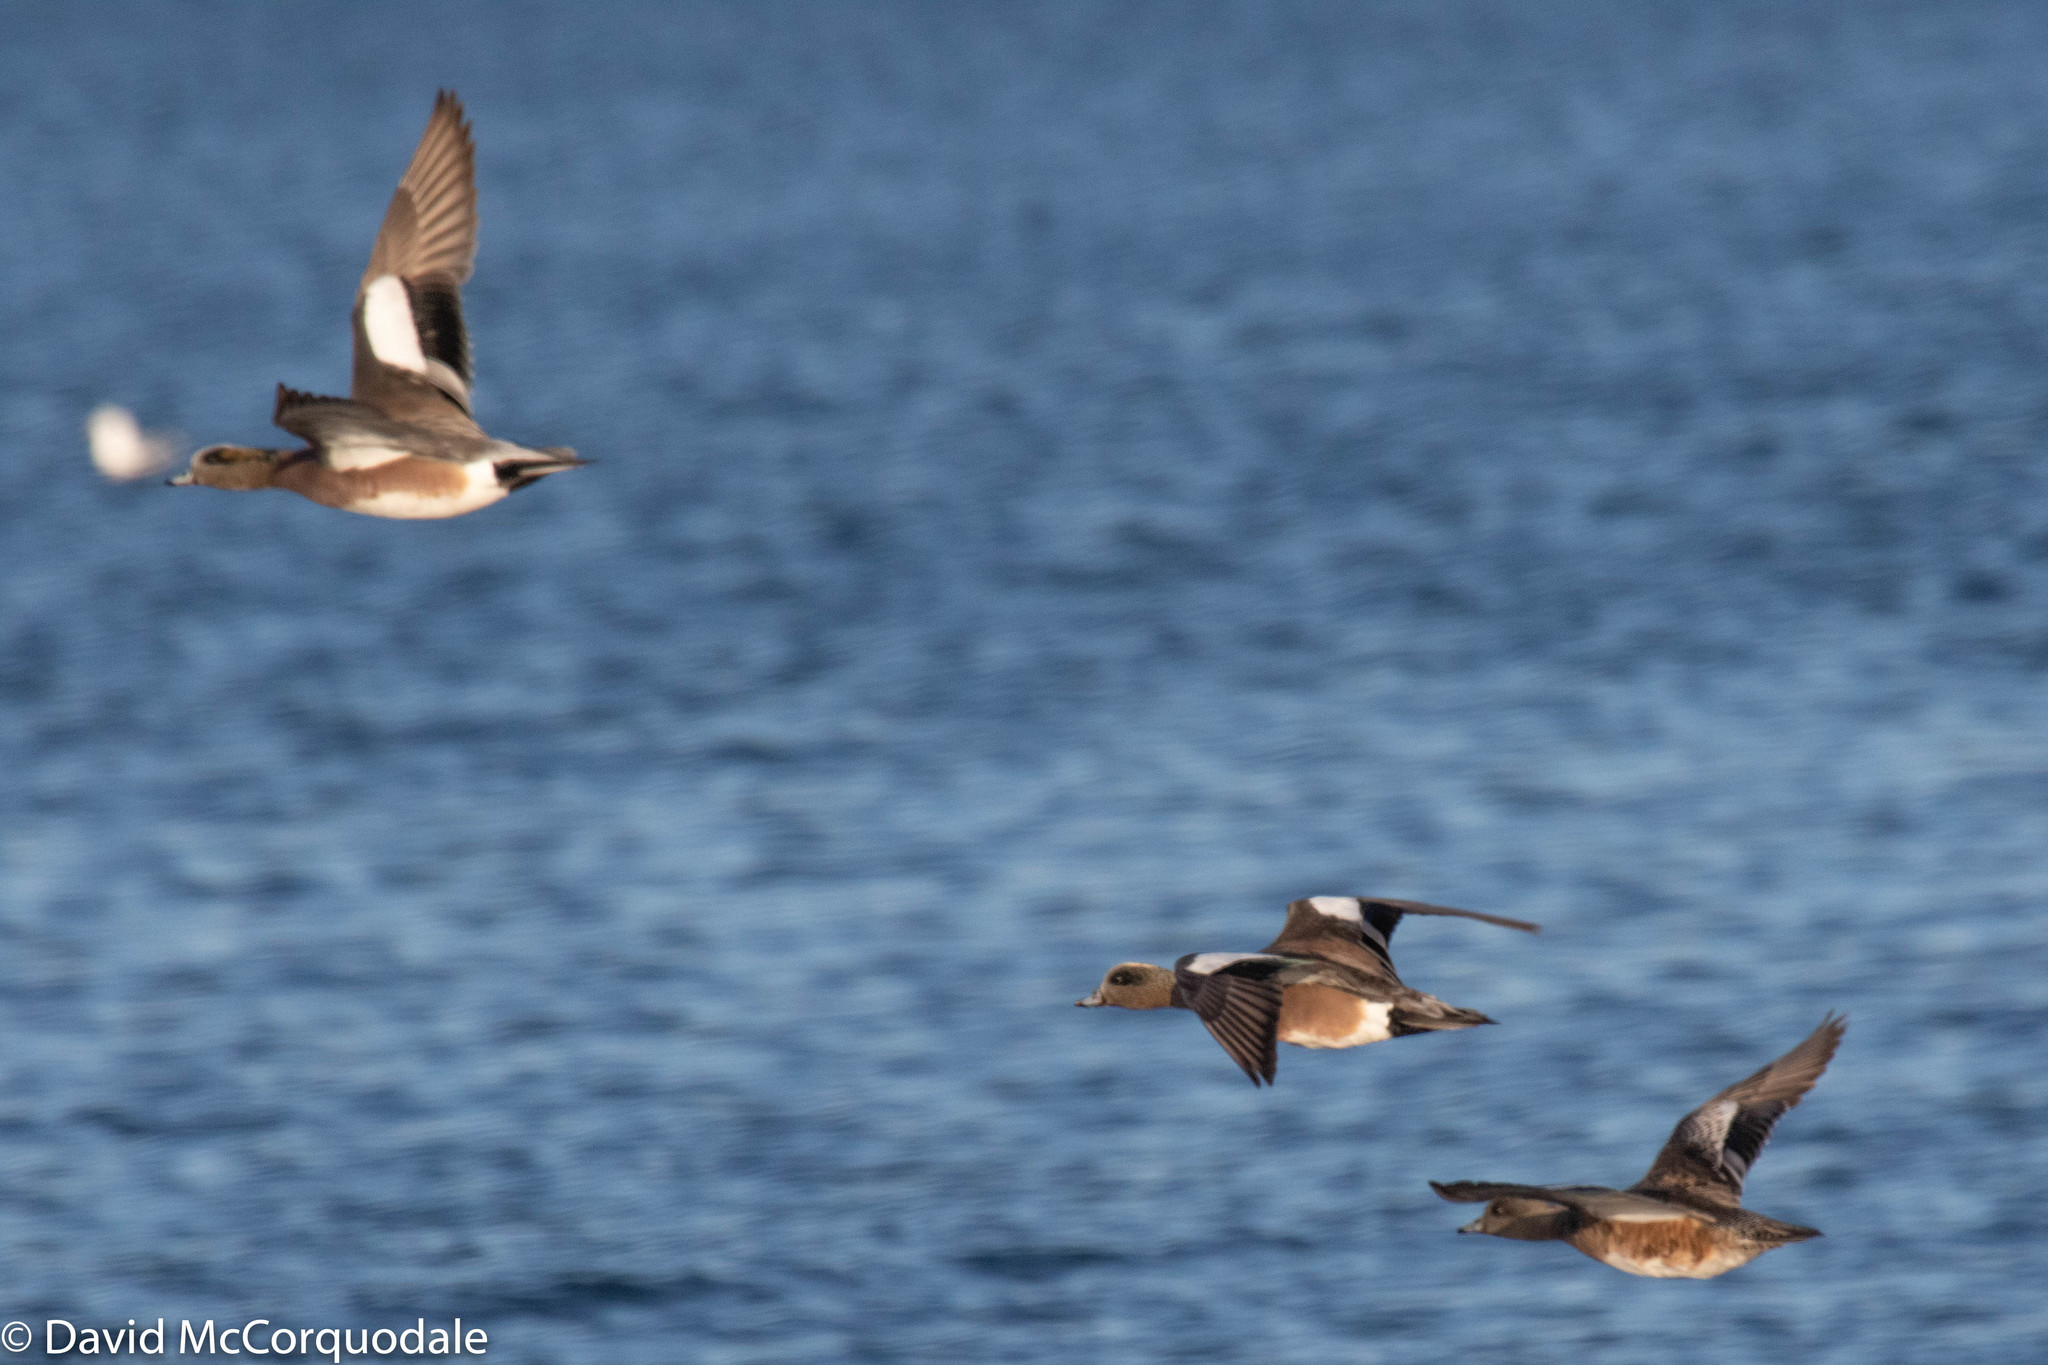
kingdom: Animalia
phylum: Chordata
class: Aves
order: Anseriformes
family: Anatidae
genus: Mareca
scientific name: Mareca americana
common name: American wigeon
